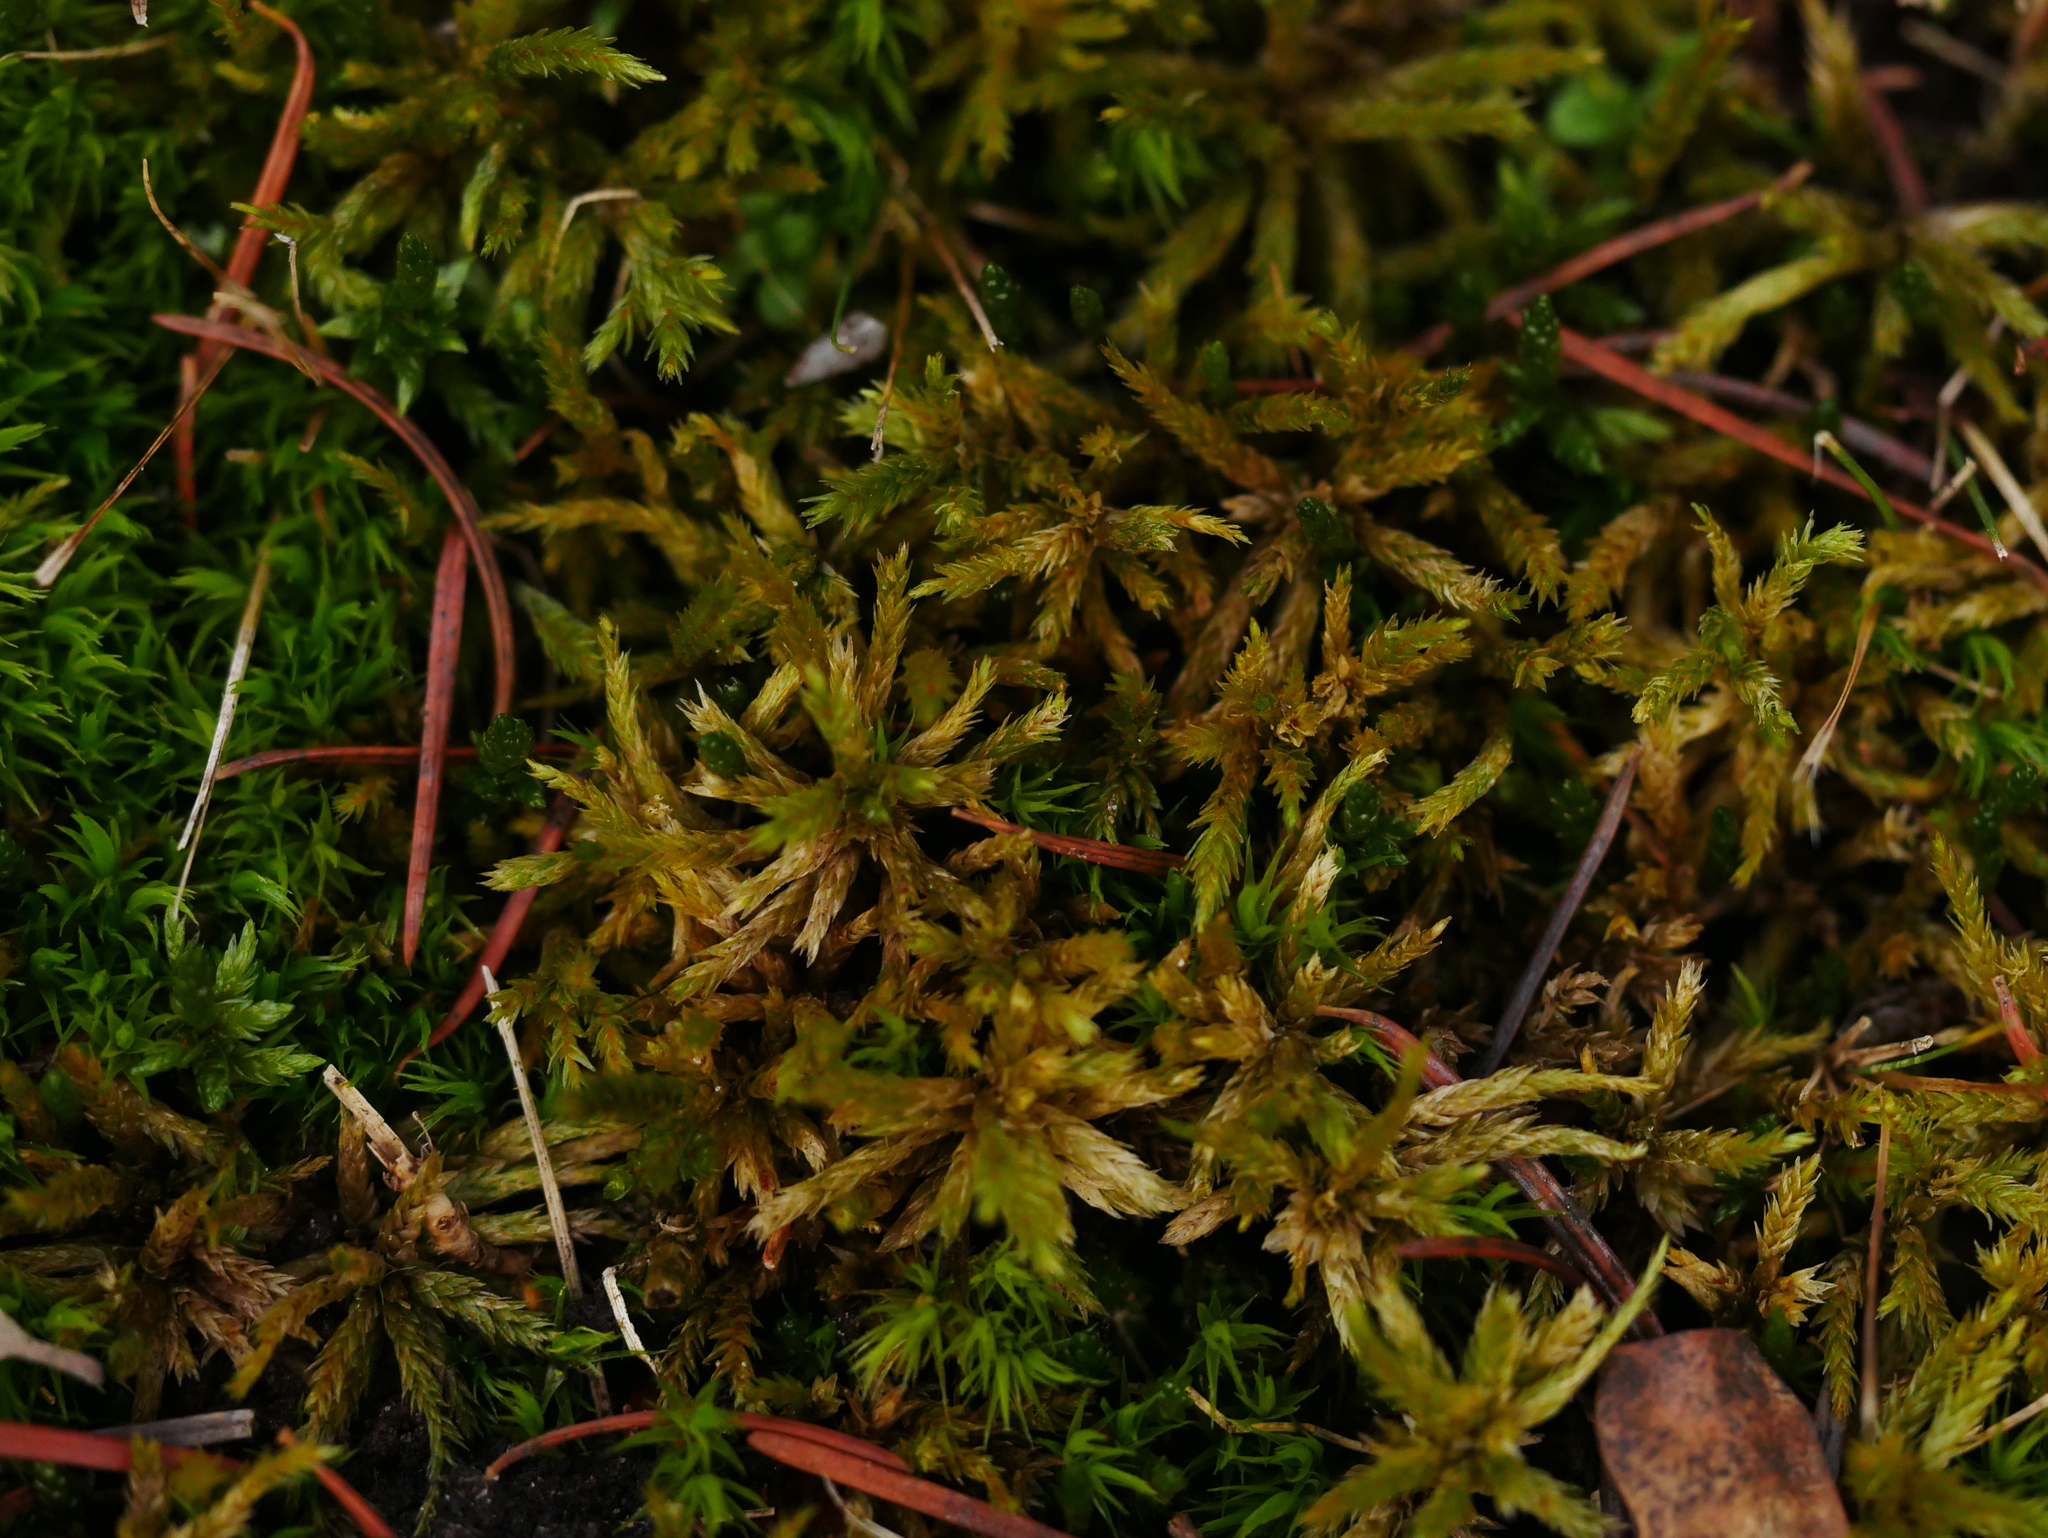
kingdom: Plantae
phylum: Bryophyta
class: Bryopsida
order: Hypnales
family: Climaciaceae
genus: Climacium
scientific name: Climacium dendroides
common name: Northern tree moss
